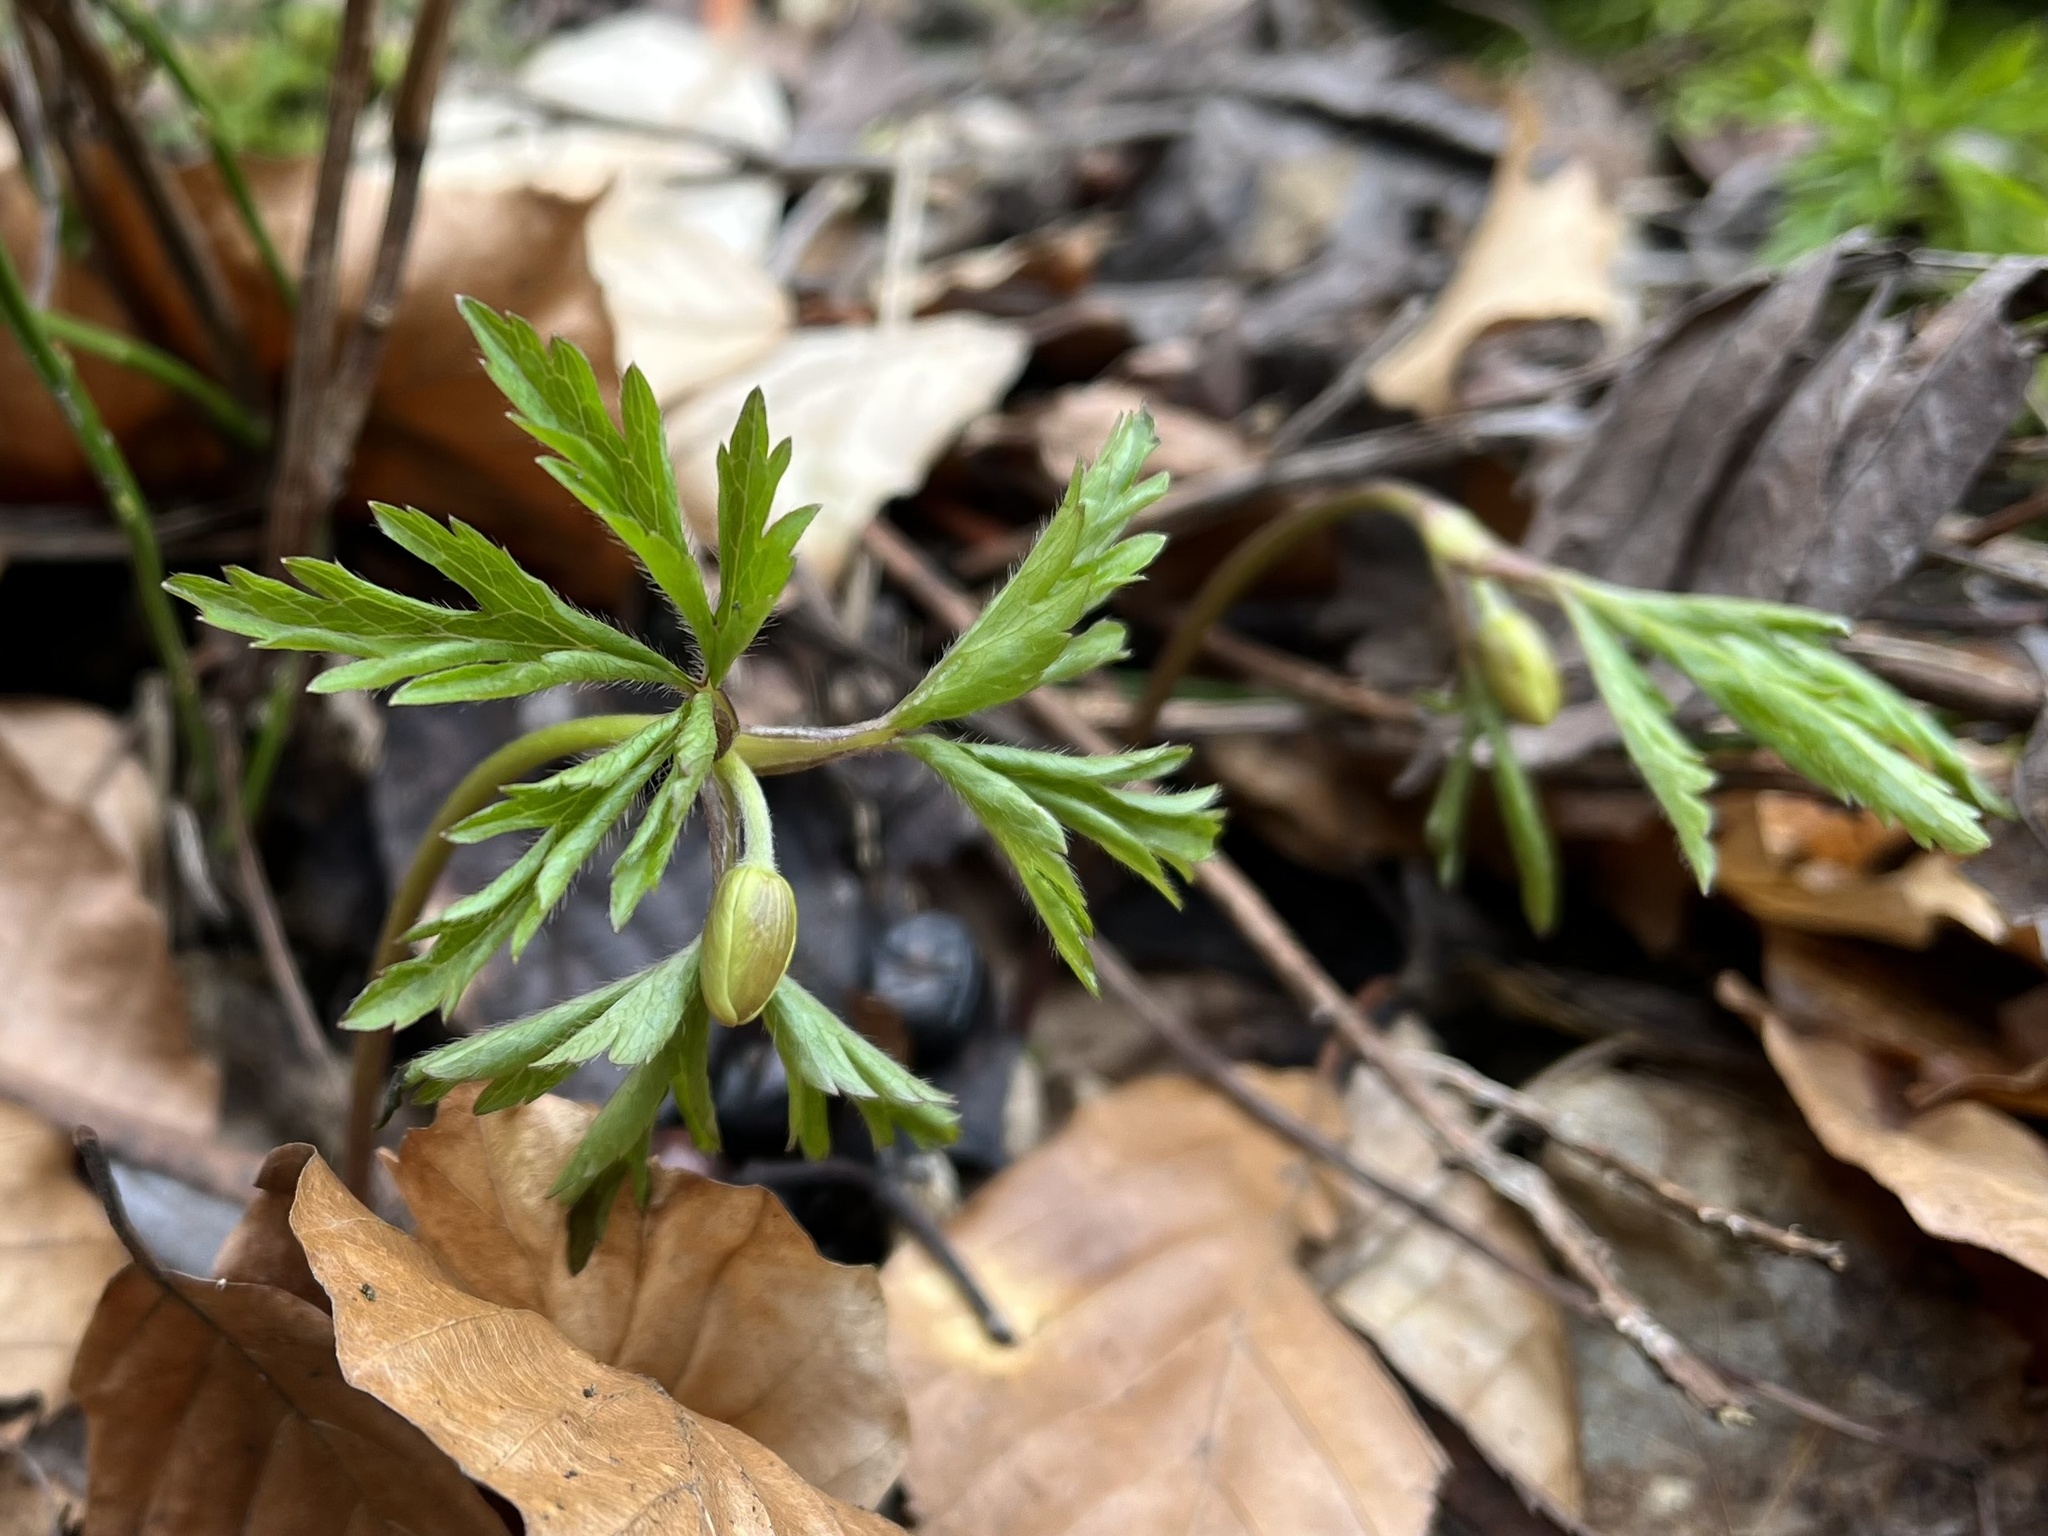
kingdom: Plantae
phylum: Tracheophyta
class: Magnoliopsida
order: Ranunculales
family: Ranunculaceae
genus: Anemone
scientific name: Anemone nemorosa
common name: Wood anemone
